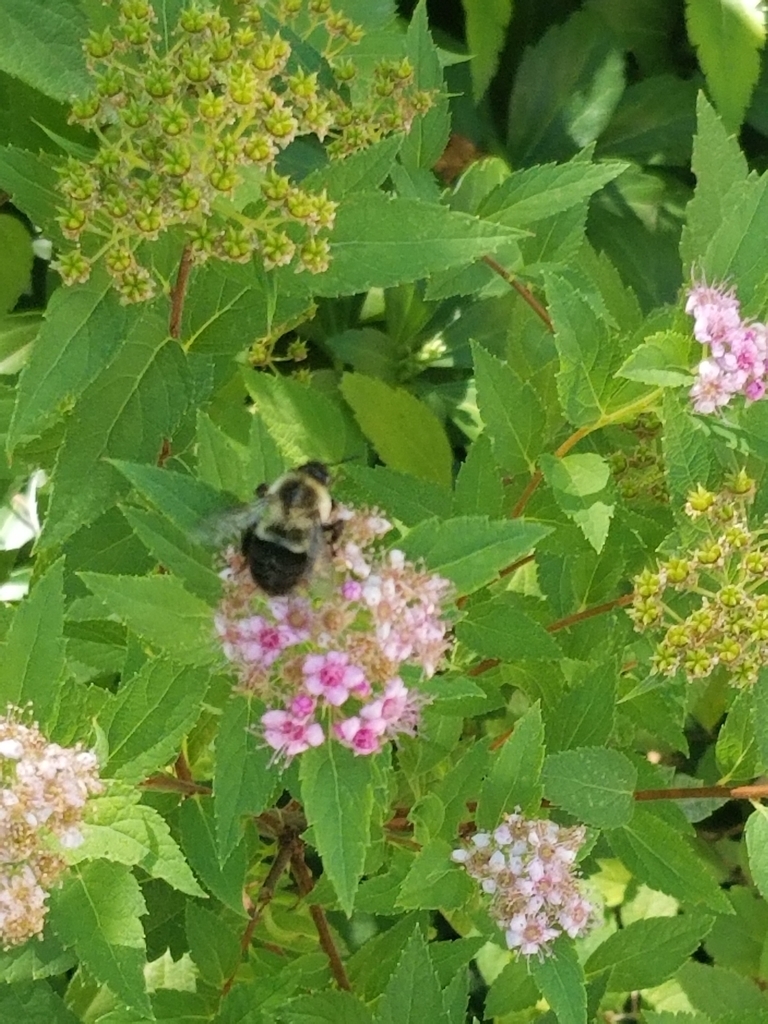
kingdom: Animalia
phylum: Arthropoda
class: Insecta
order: Hymenoptera
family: Apidae
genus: Bombus
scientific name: Bombus impatiens
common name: Common eastern bumble bee
